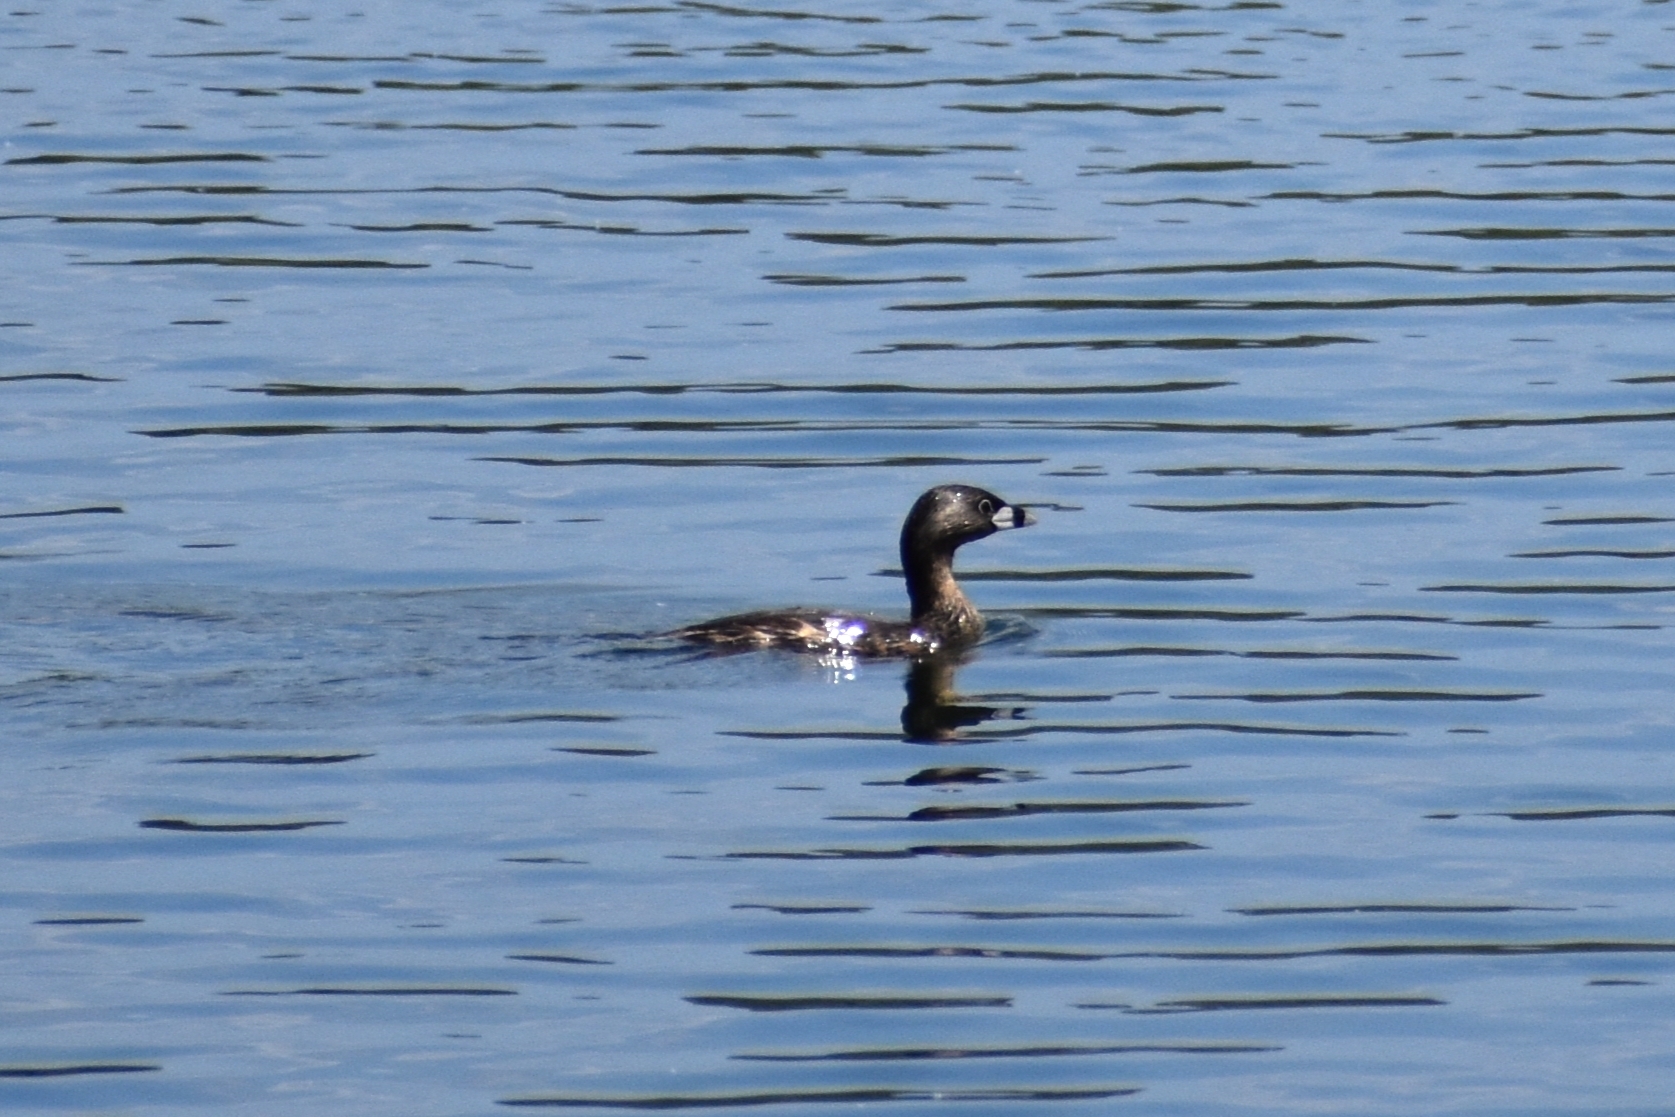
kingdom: Animalia
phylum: Chordata
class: Aves
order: Podicipediformes
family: Podicipedidae
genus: Podilymbus
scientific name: Podilymbus podiceps
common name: Pied-billed grebe
